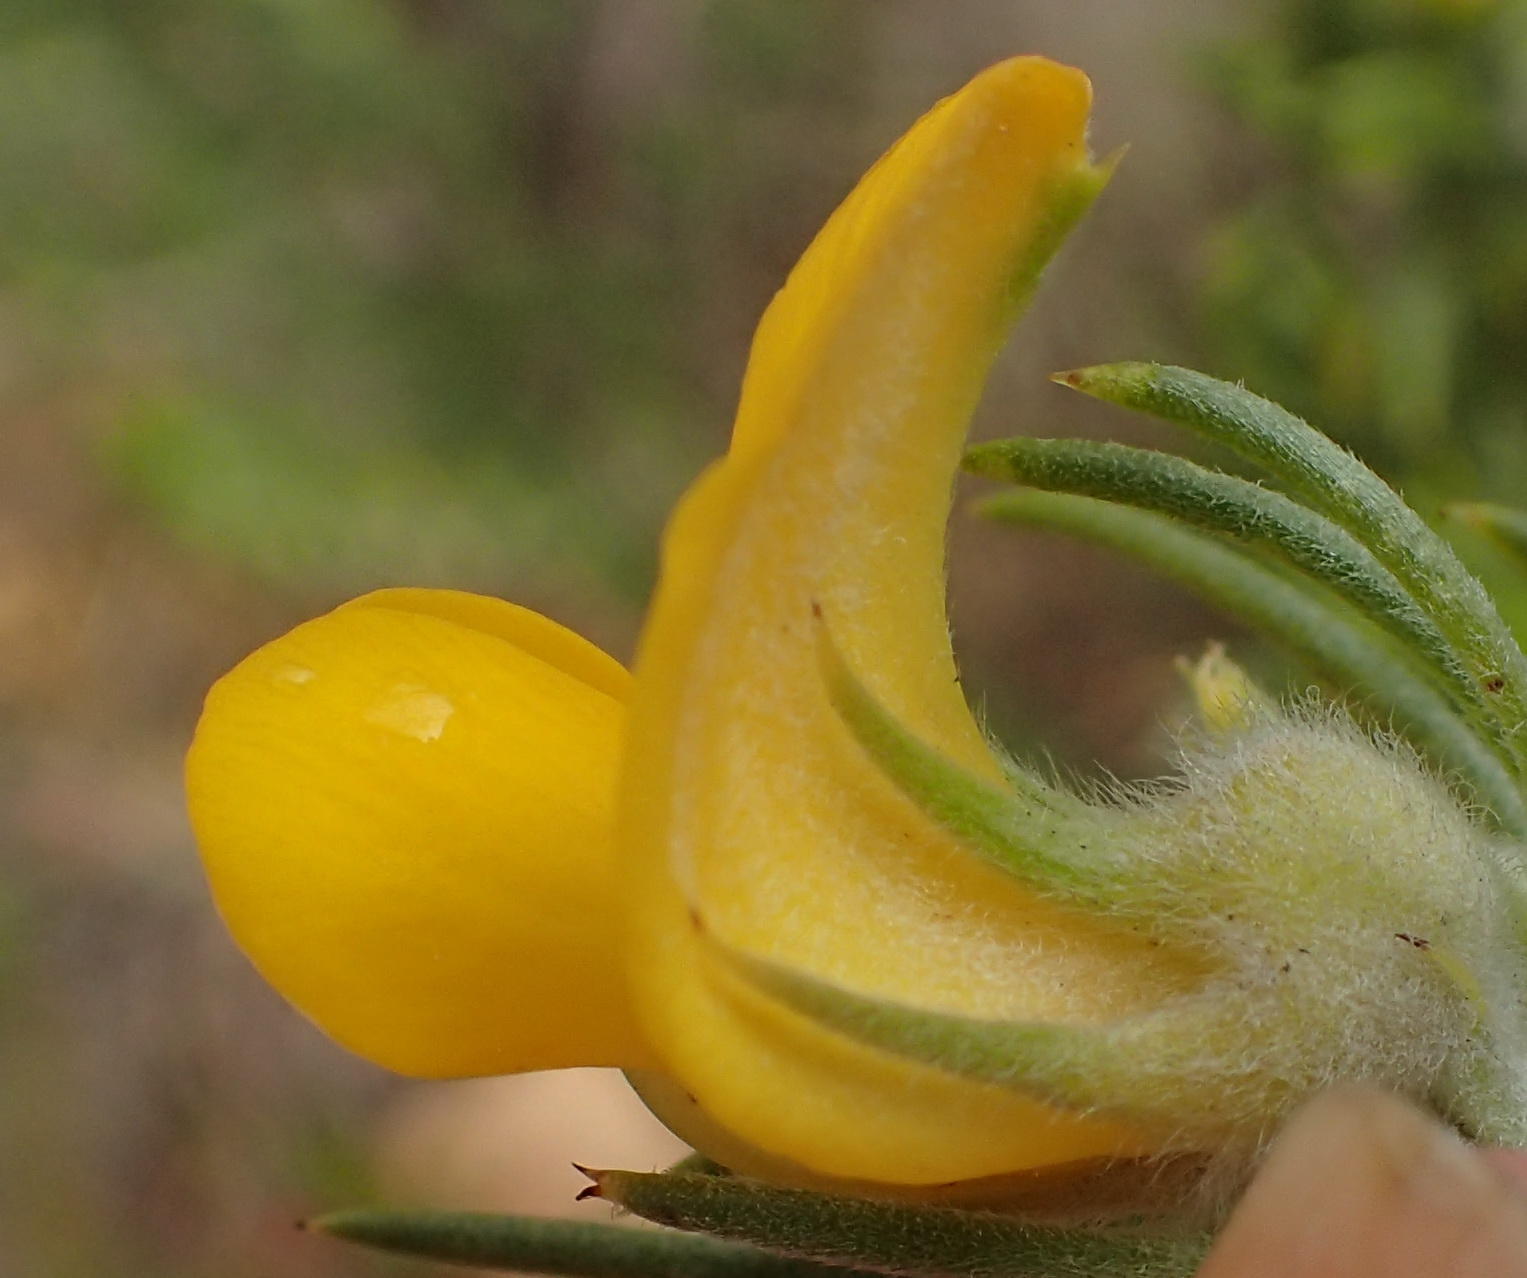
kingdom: Plantae
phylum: Tracheophyta
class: Magnoliopsida
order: Fabales
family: Fabaceae
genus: Aspalathus
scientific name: Aspalathus acanthes
